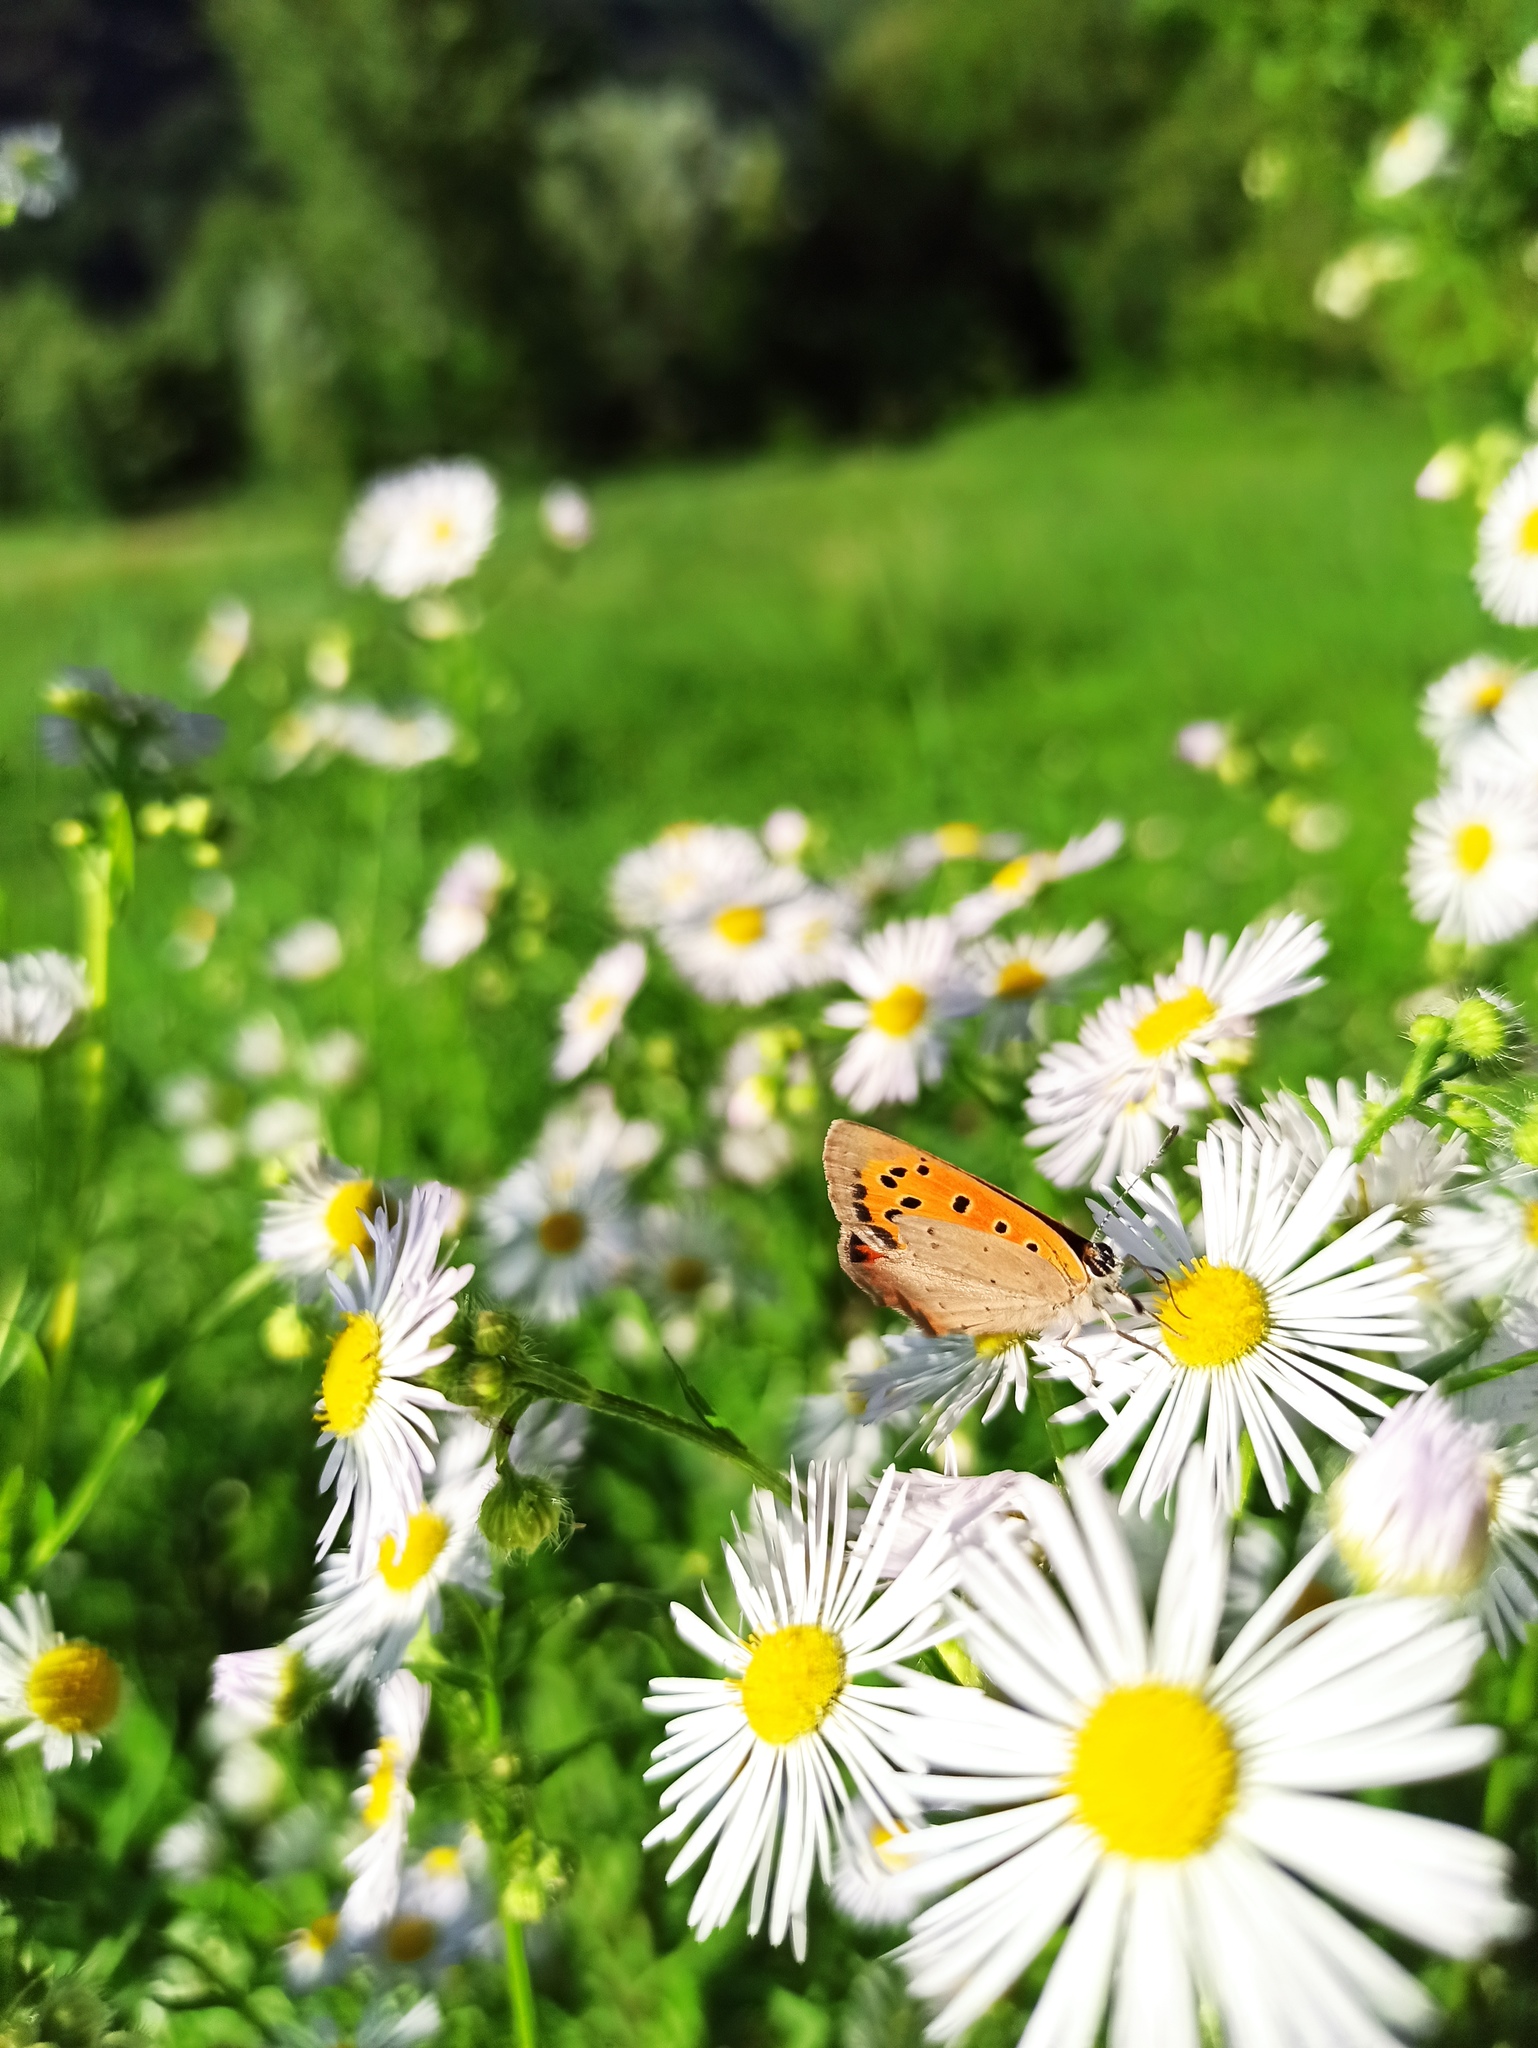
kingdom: Animalia
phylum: Arthropoda
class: Insecta
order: Lepidoptera
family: Lycaenidae
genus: Lycaena
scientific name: Lycaena phlaeas
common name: Small copper
